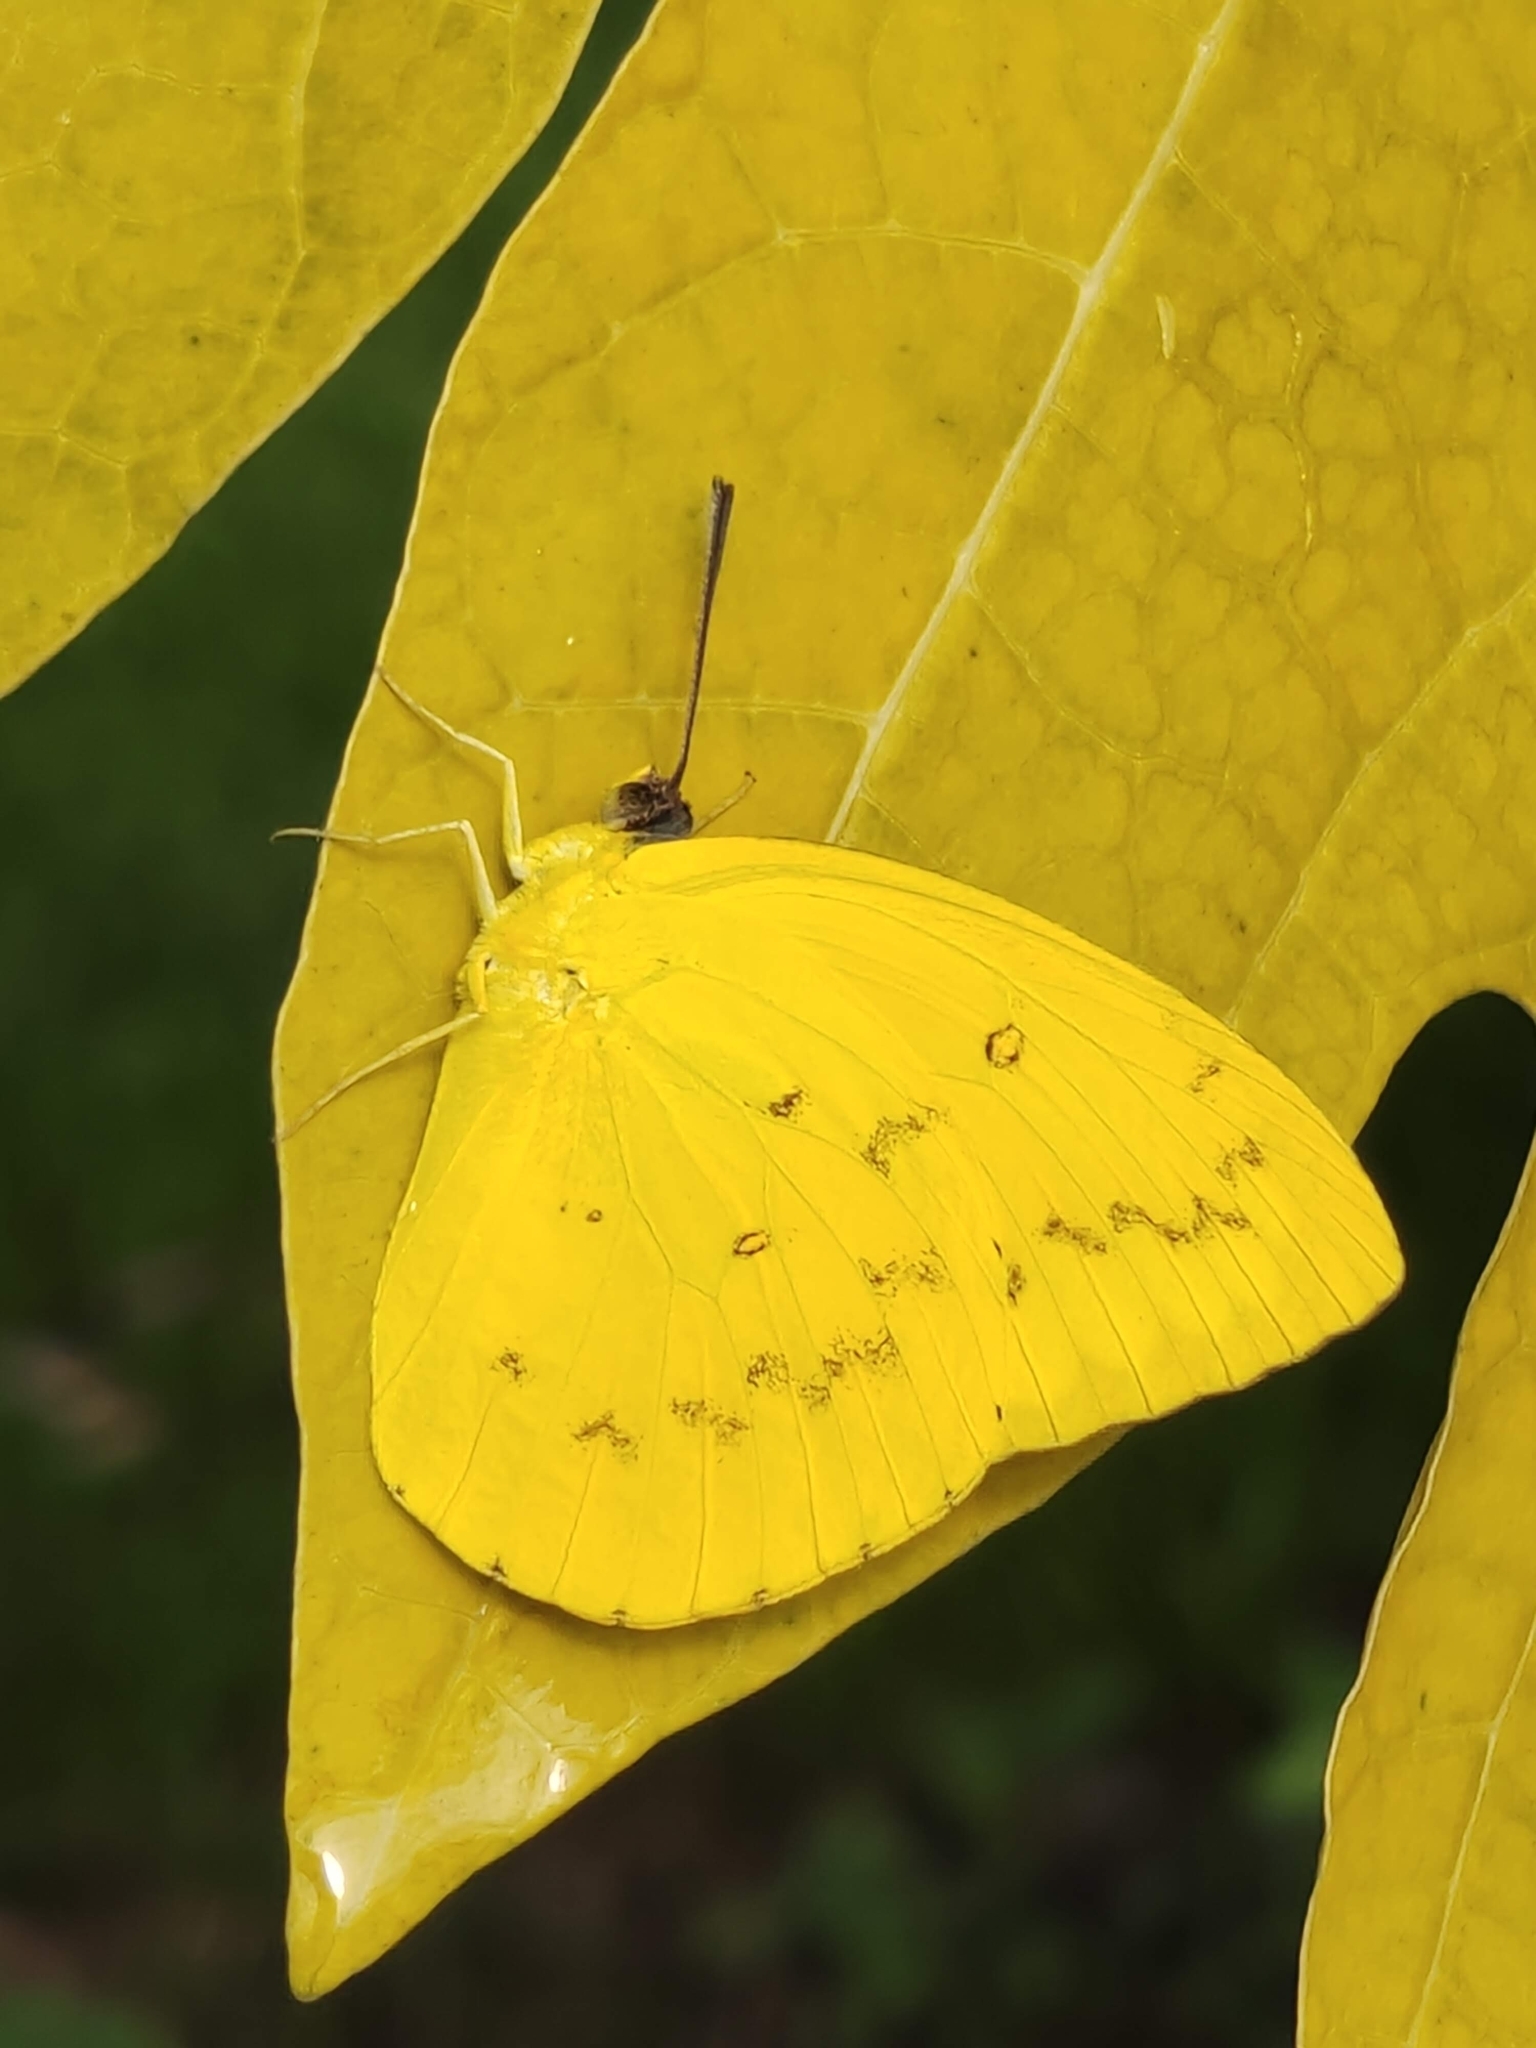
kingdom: Animalia
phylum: Arthropoda
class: Insecta
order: Lepidoptera
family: Pieridae
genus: Catopsilia
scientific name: Catopsilia scylla
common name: Orange emigrant
